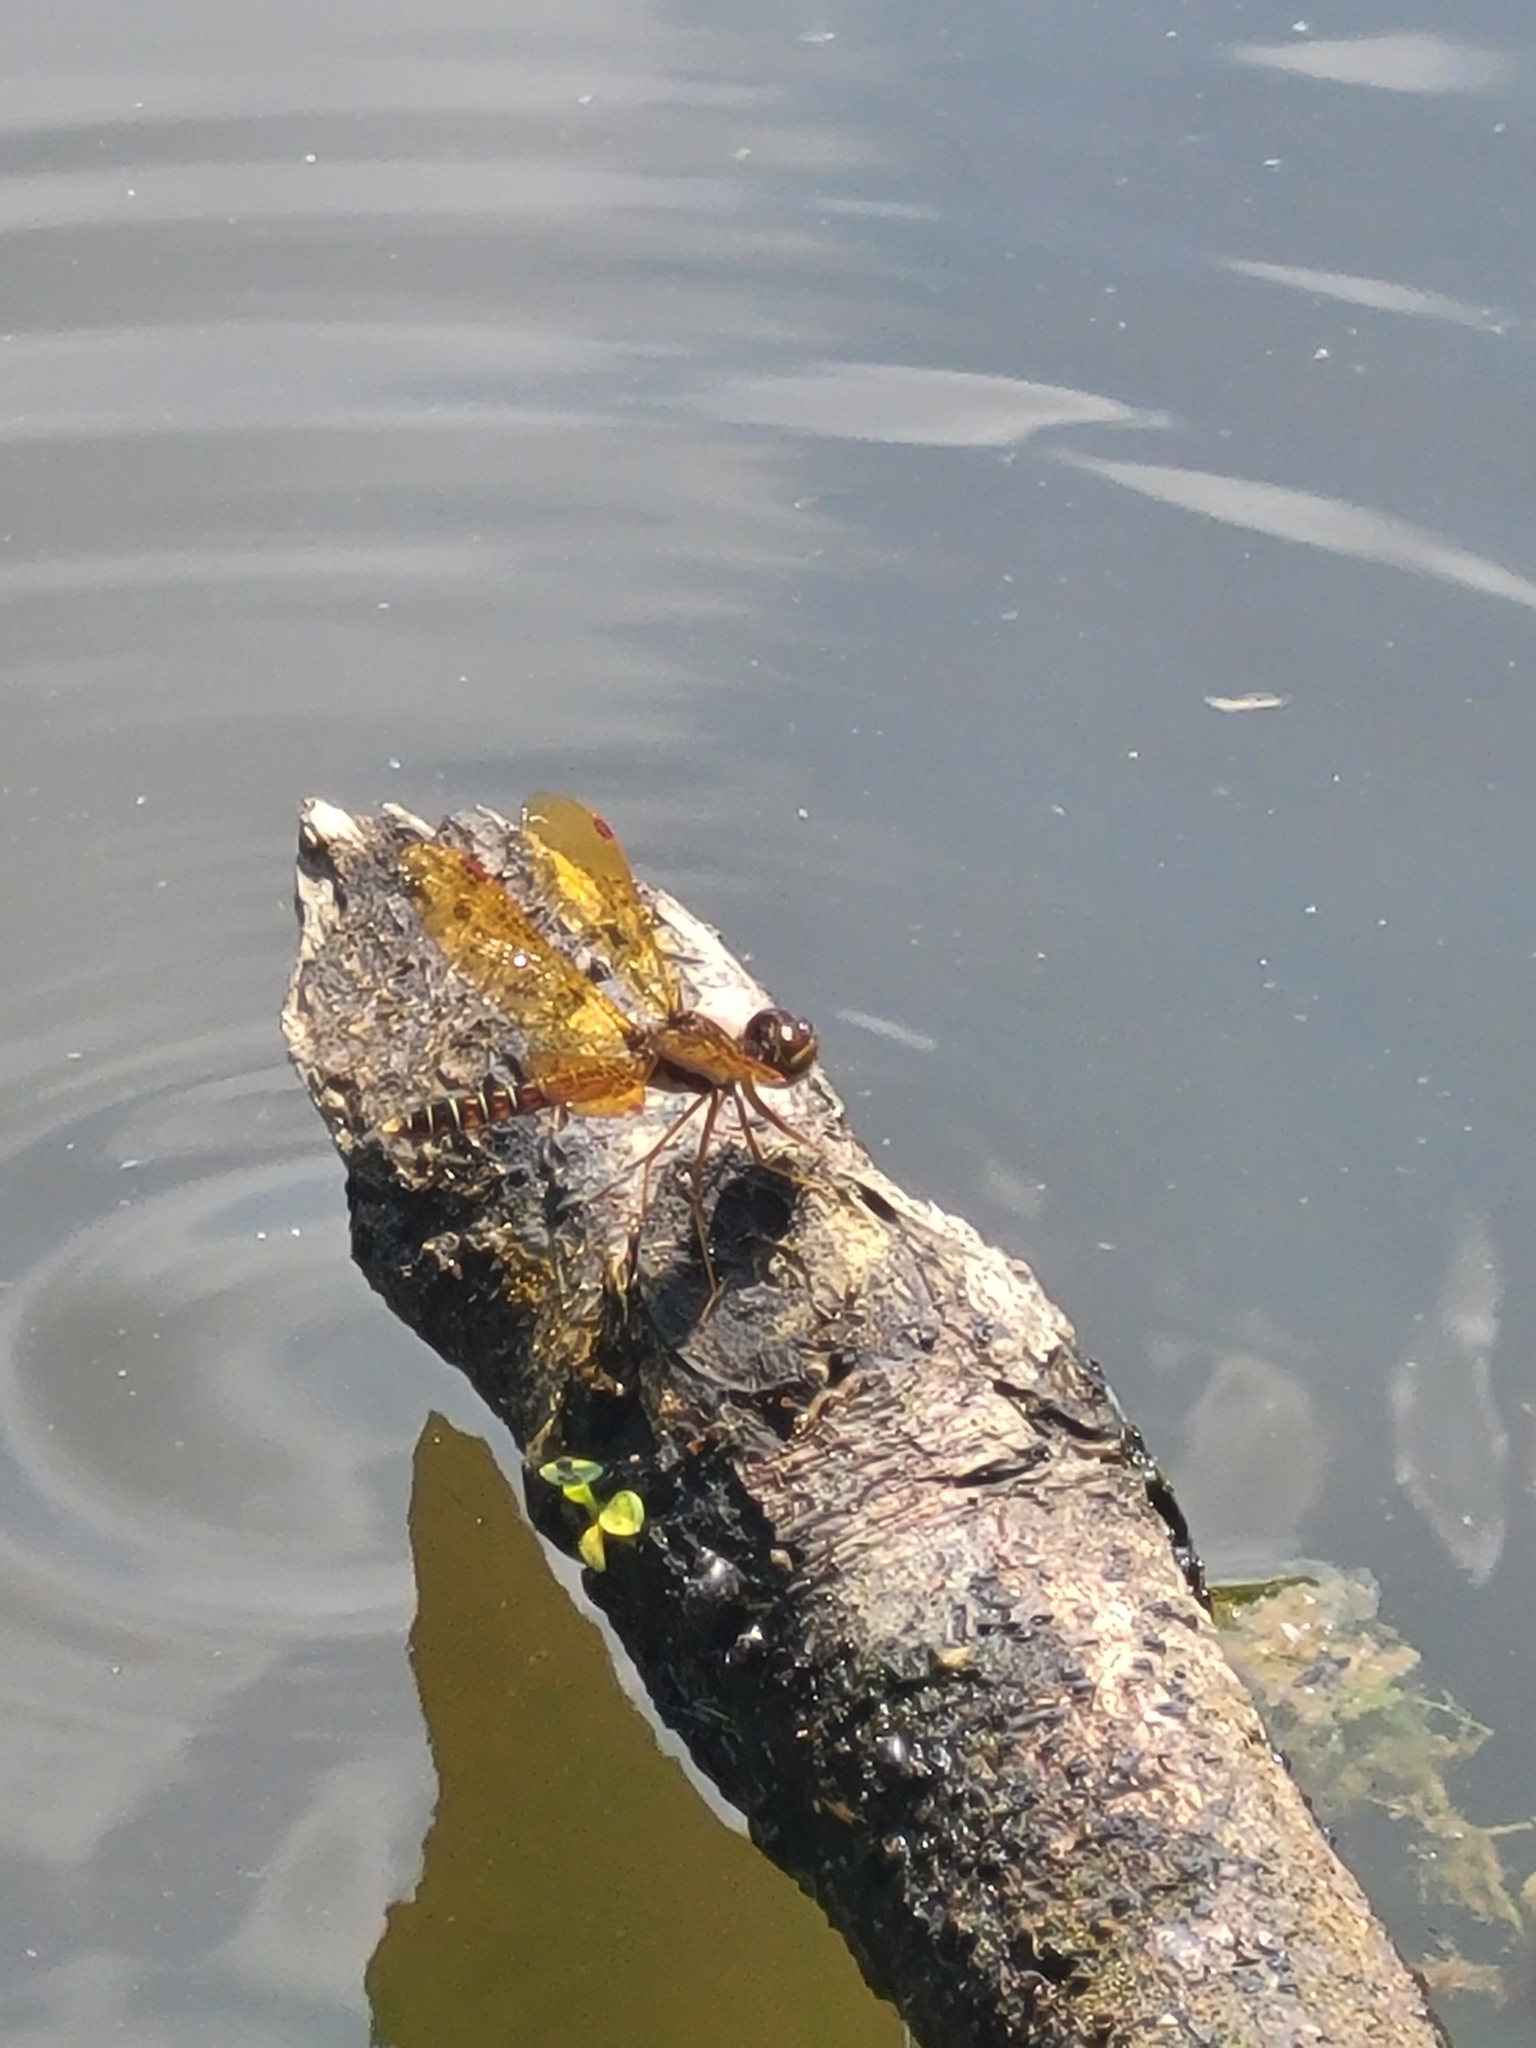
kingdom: Animalia
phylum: Arthropoda
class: Insecta
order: Odonata
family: Libellulidae
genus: Perithemis
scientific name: Perithemis tenera
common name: Eastern amberwing
